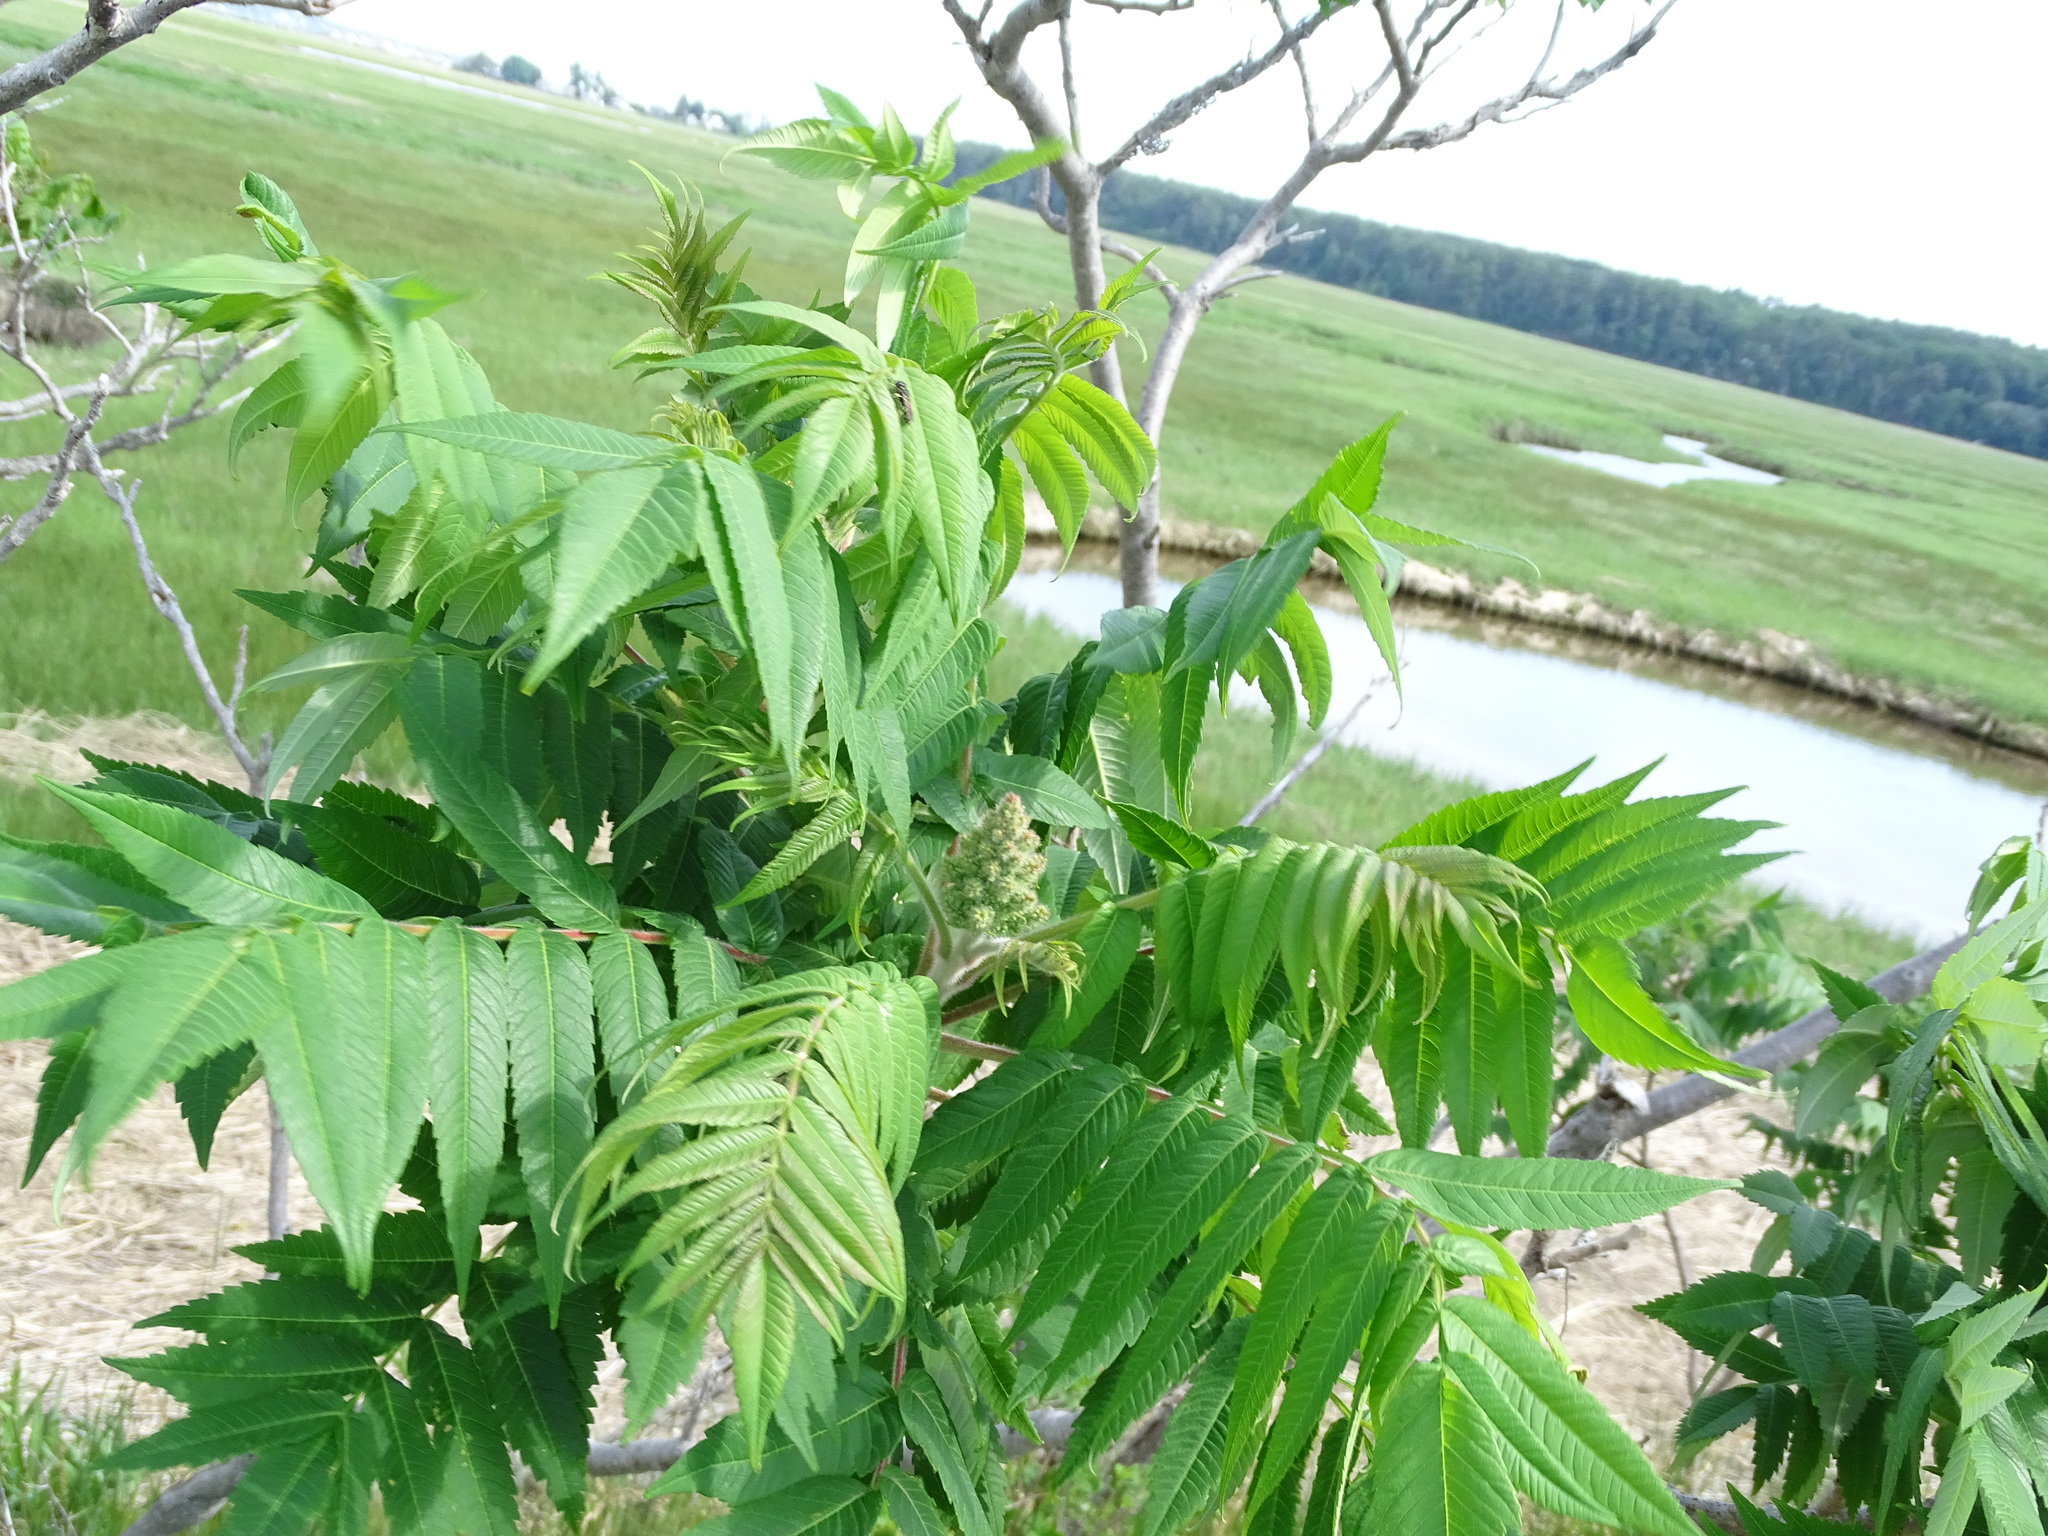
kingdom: Plantae
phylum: Tracheophyta
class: Magnoliopsida
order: Sapindales
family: Anacardiaceae
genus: Rhus
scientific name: Rhus typhina
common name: Staghorn sumac
